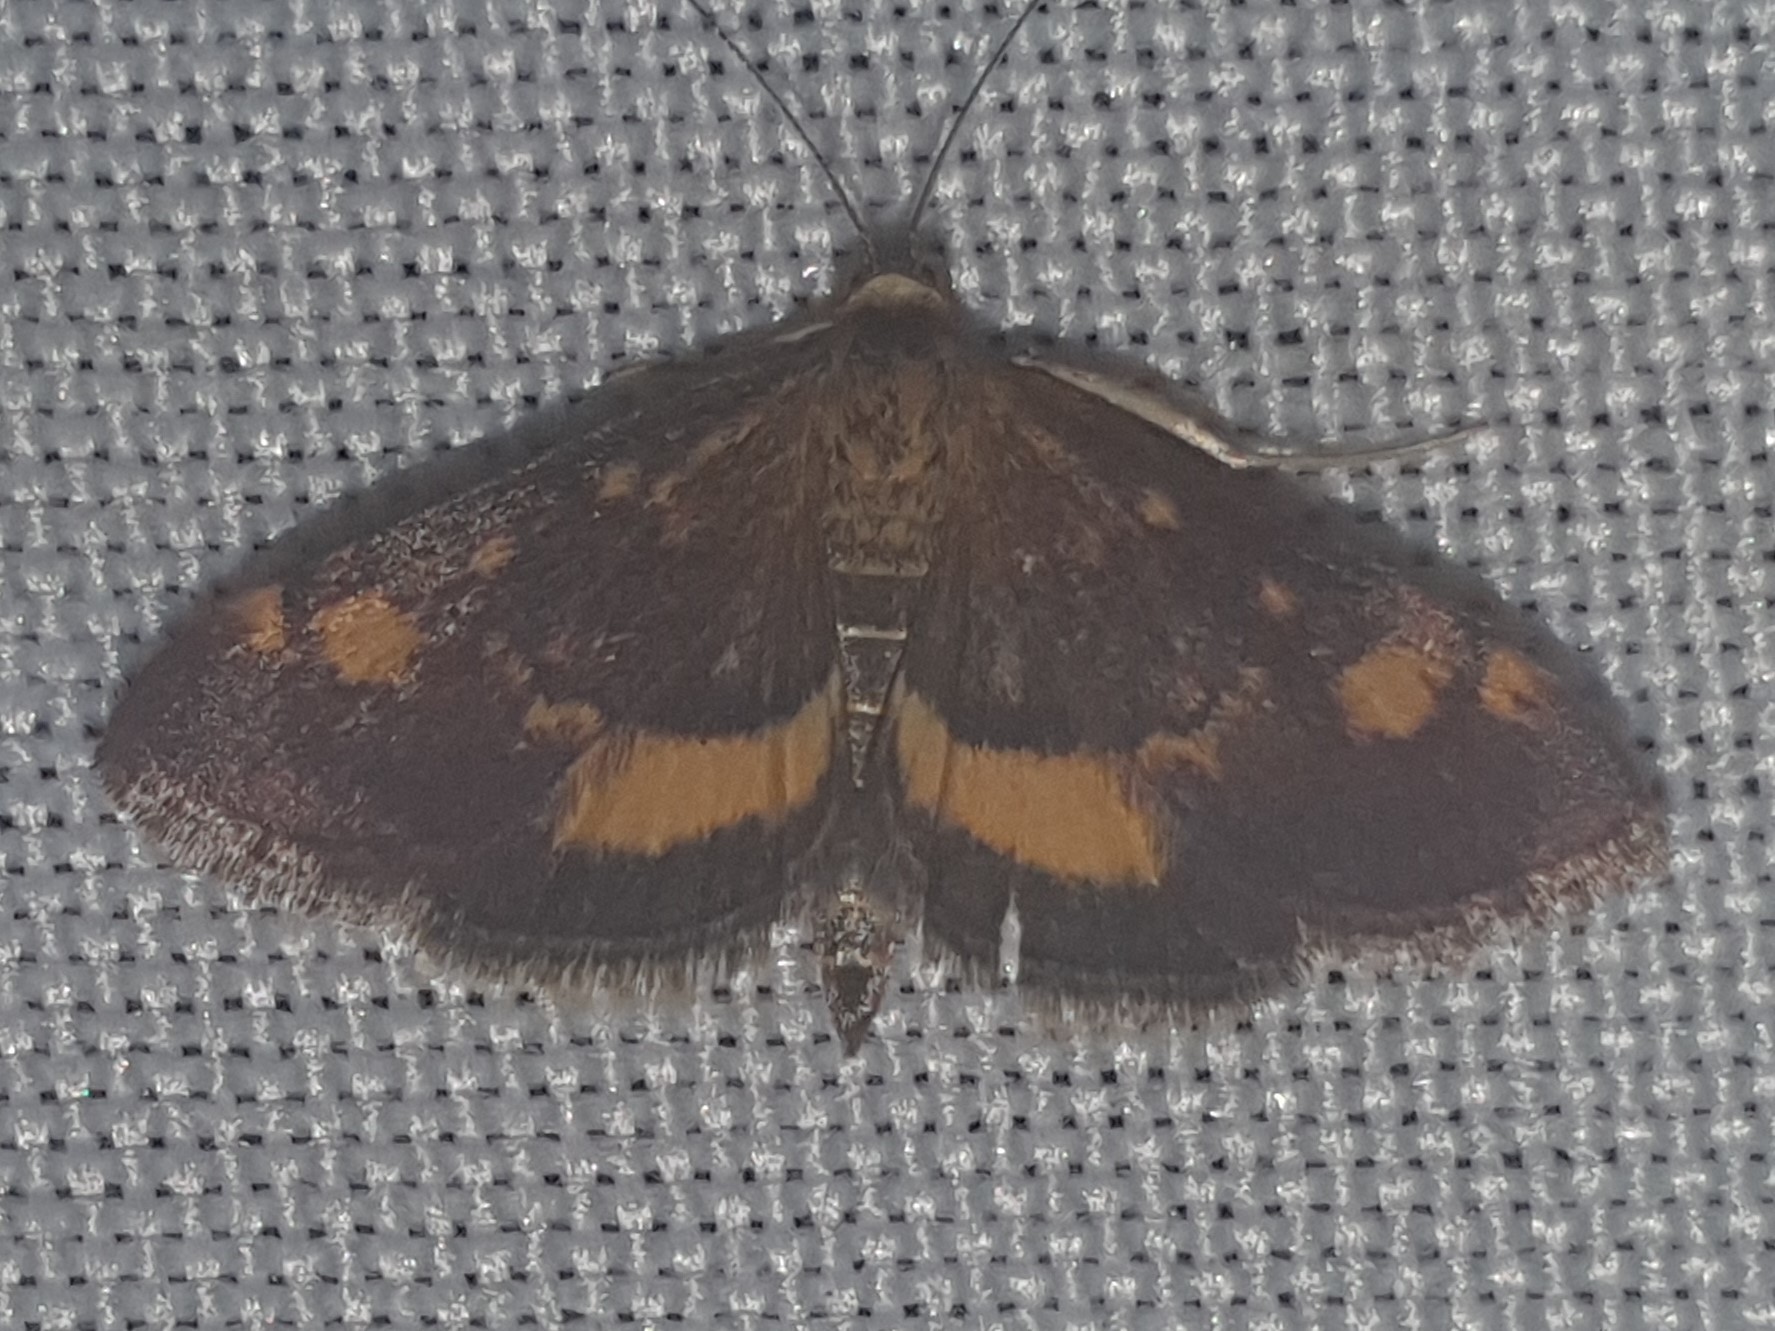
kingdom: Animalia
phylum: Arthropoda
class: Insecta
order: Lepidoptera
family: Crambidae
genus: Pyrausta
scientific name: Pyrausta aurata
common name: Small purple & gold
